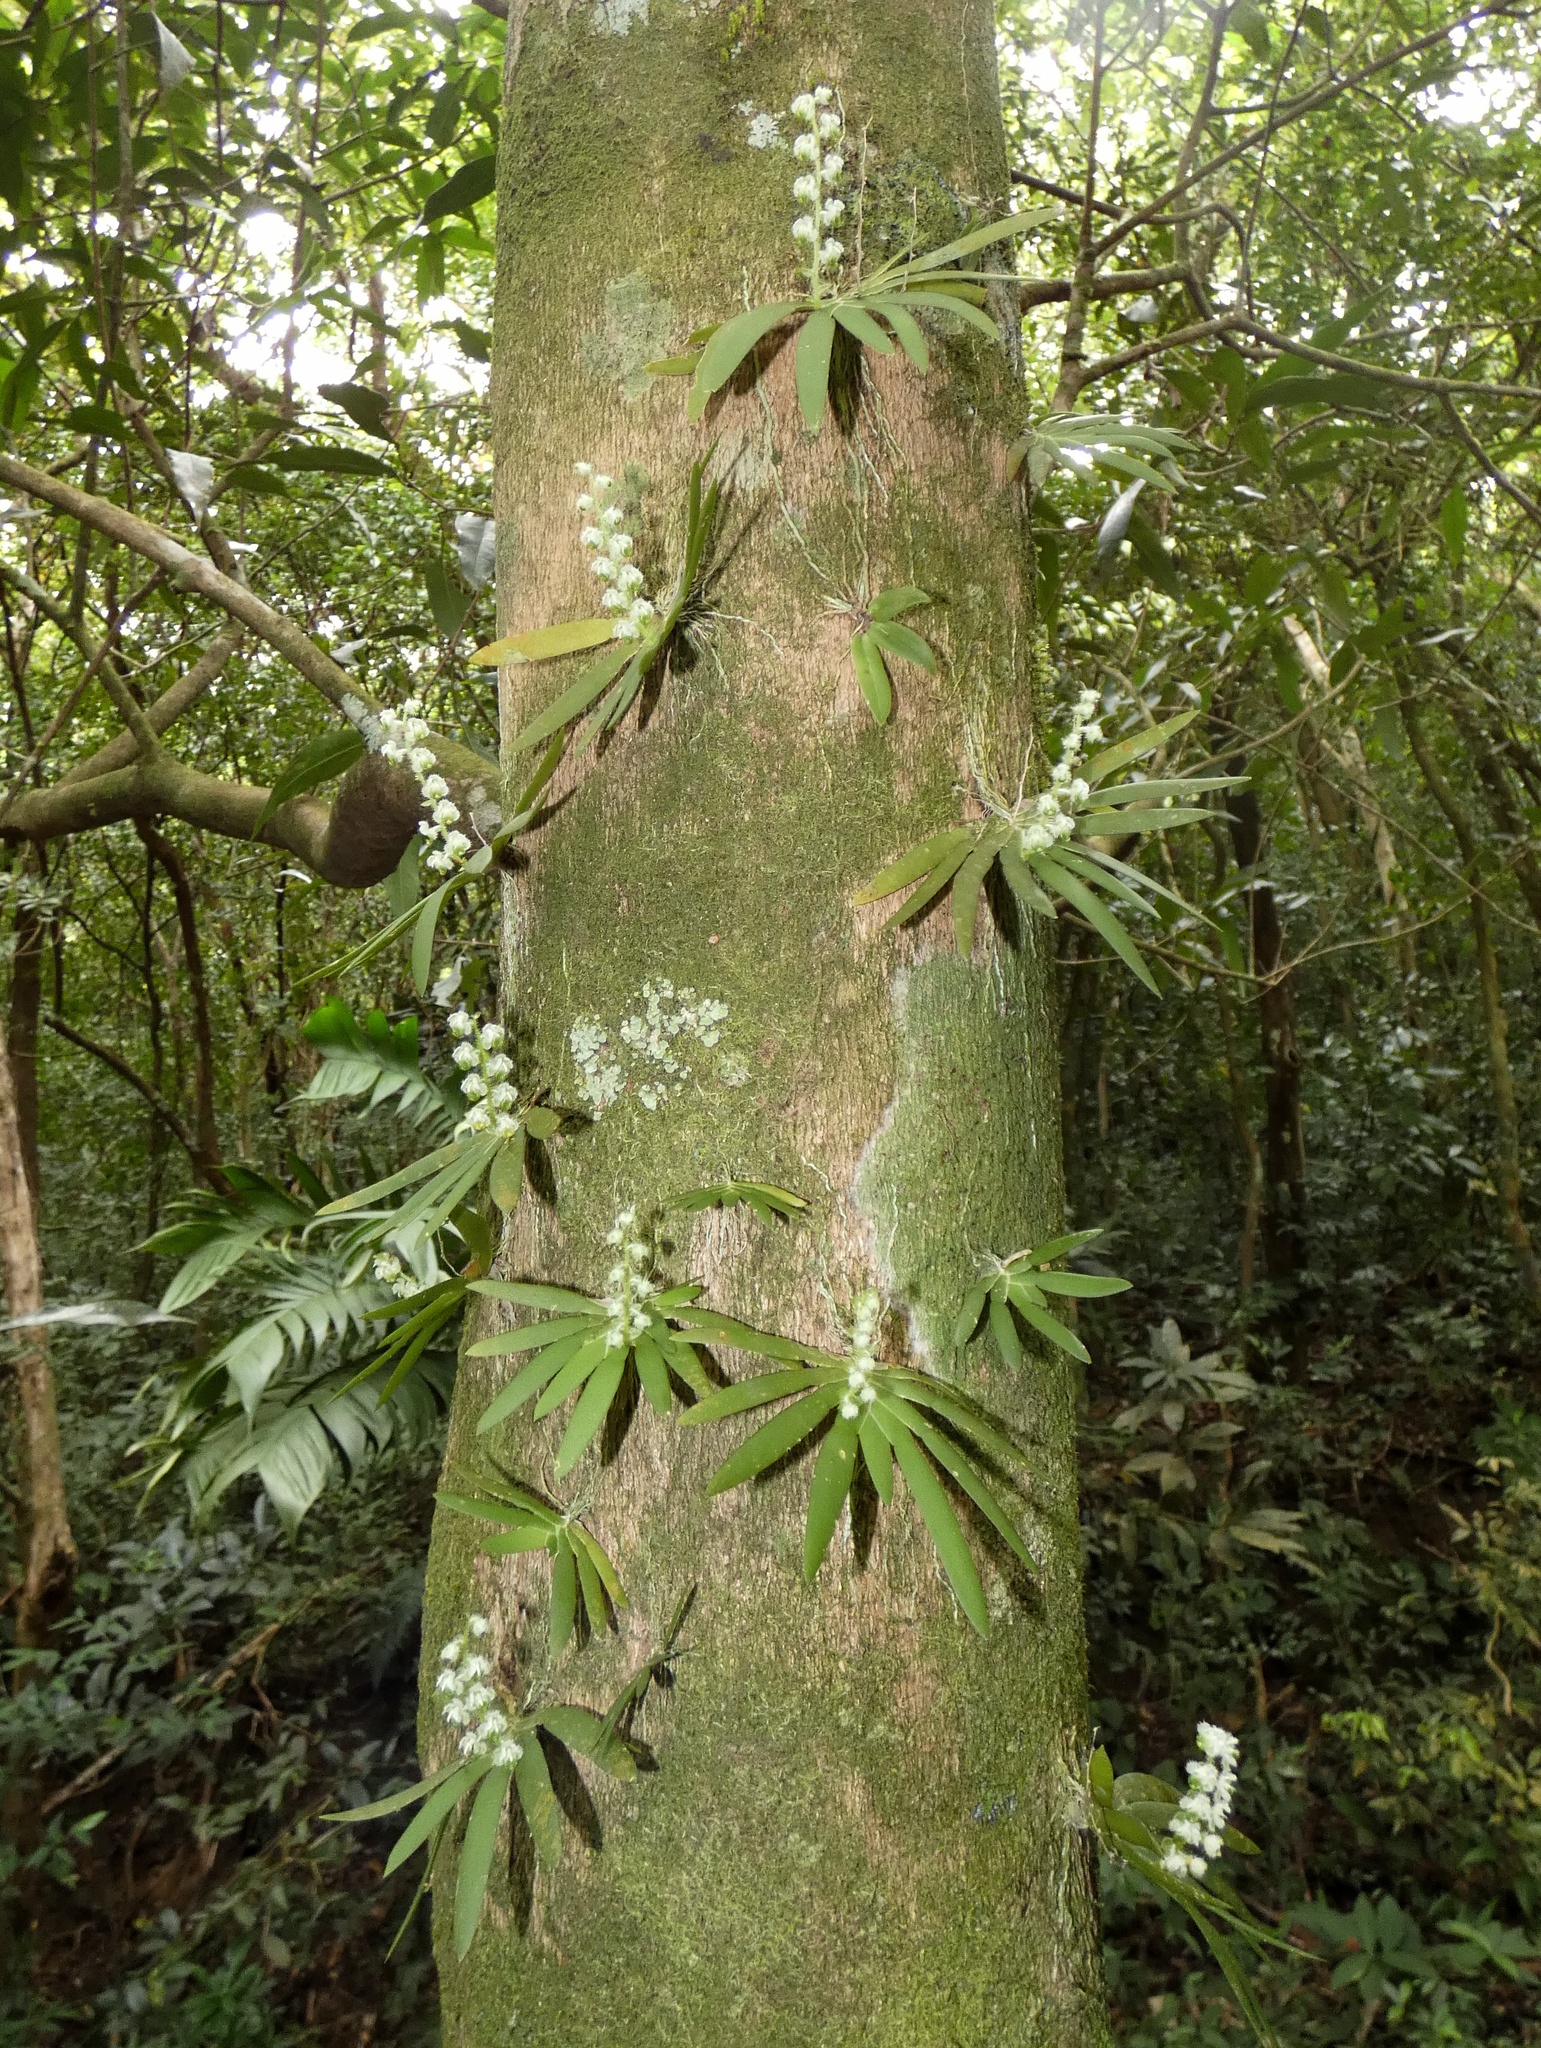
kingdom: Plantae
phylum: Tracheophyta
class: Liliopsida
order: Asparagales
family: Orchidaceae
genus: Ornithocephalus
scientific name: Ornithocephalus cochleariformis
